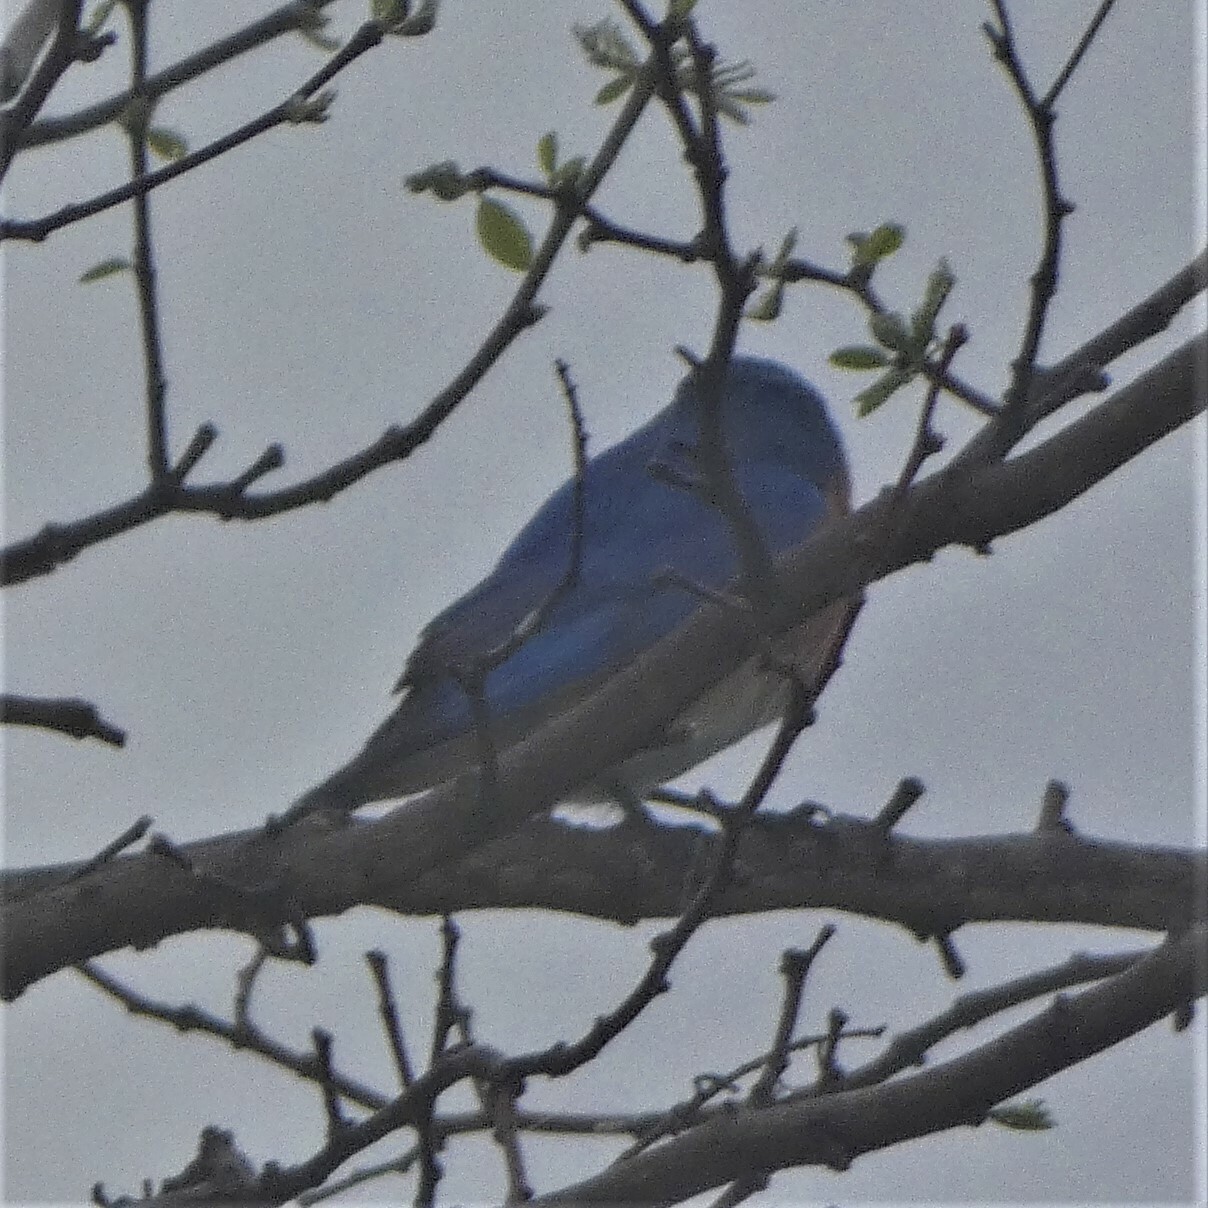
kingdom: Animalia
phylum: Chordata
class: Aves
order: Passeriformes
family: Turdidae
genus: Sialia
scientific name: Sialia sialis
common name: Eastern bluebird
